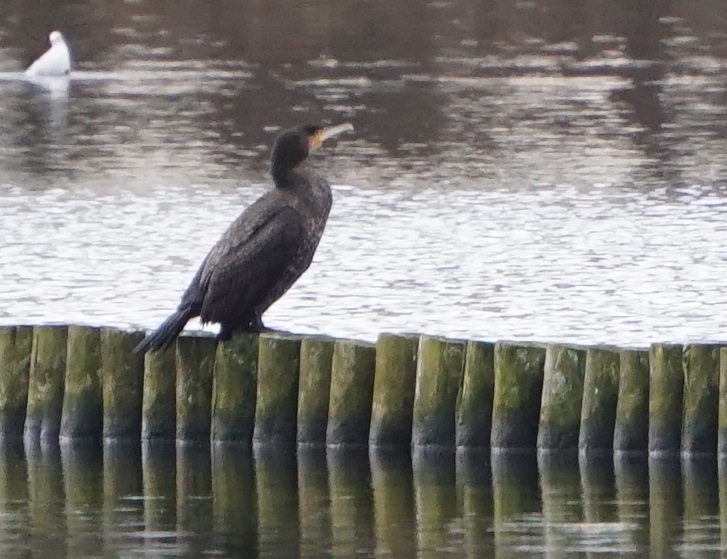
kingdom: Animalia
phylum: Chordata
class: Aves
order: Suliformes
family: Phalacrocoracidae
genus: Phalacrocorax
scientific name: Phalacrocorax carbo
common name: Great cormorant
